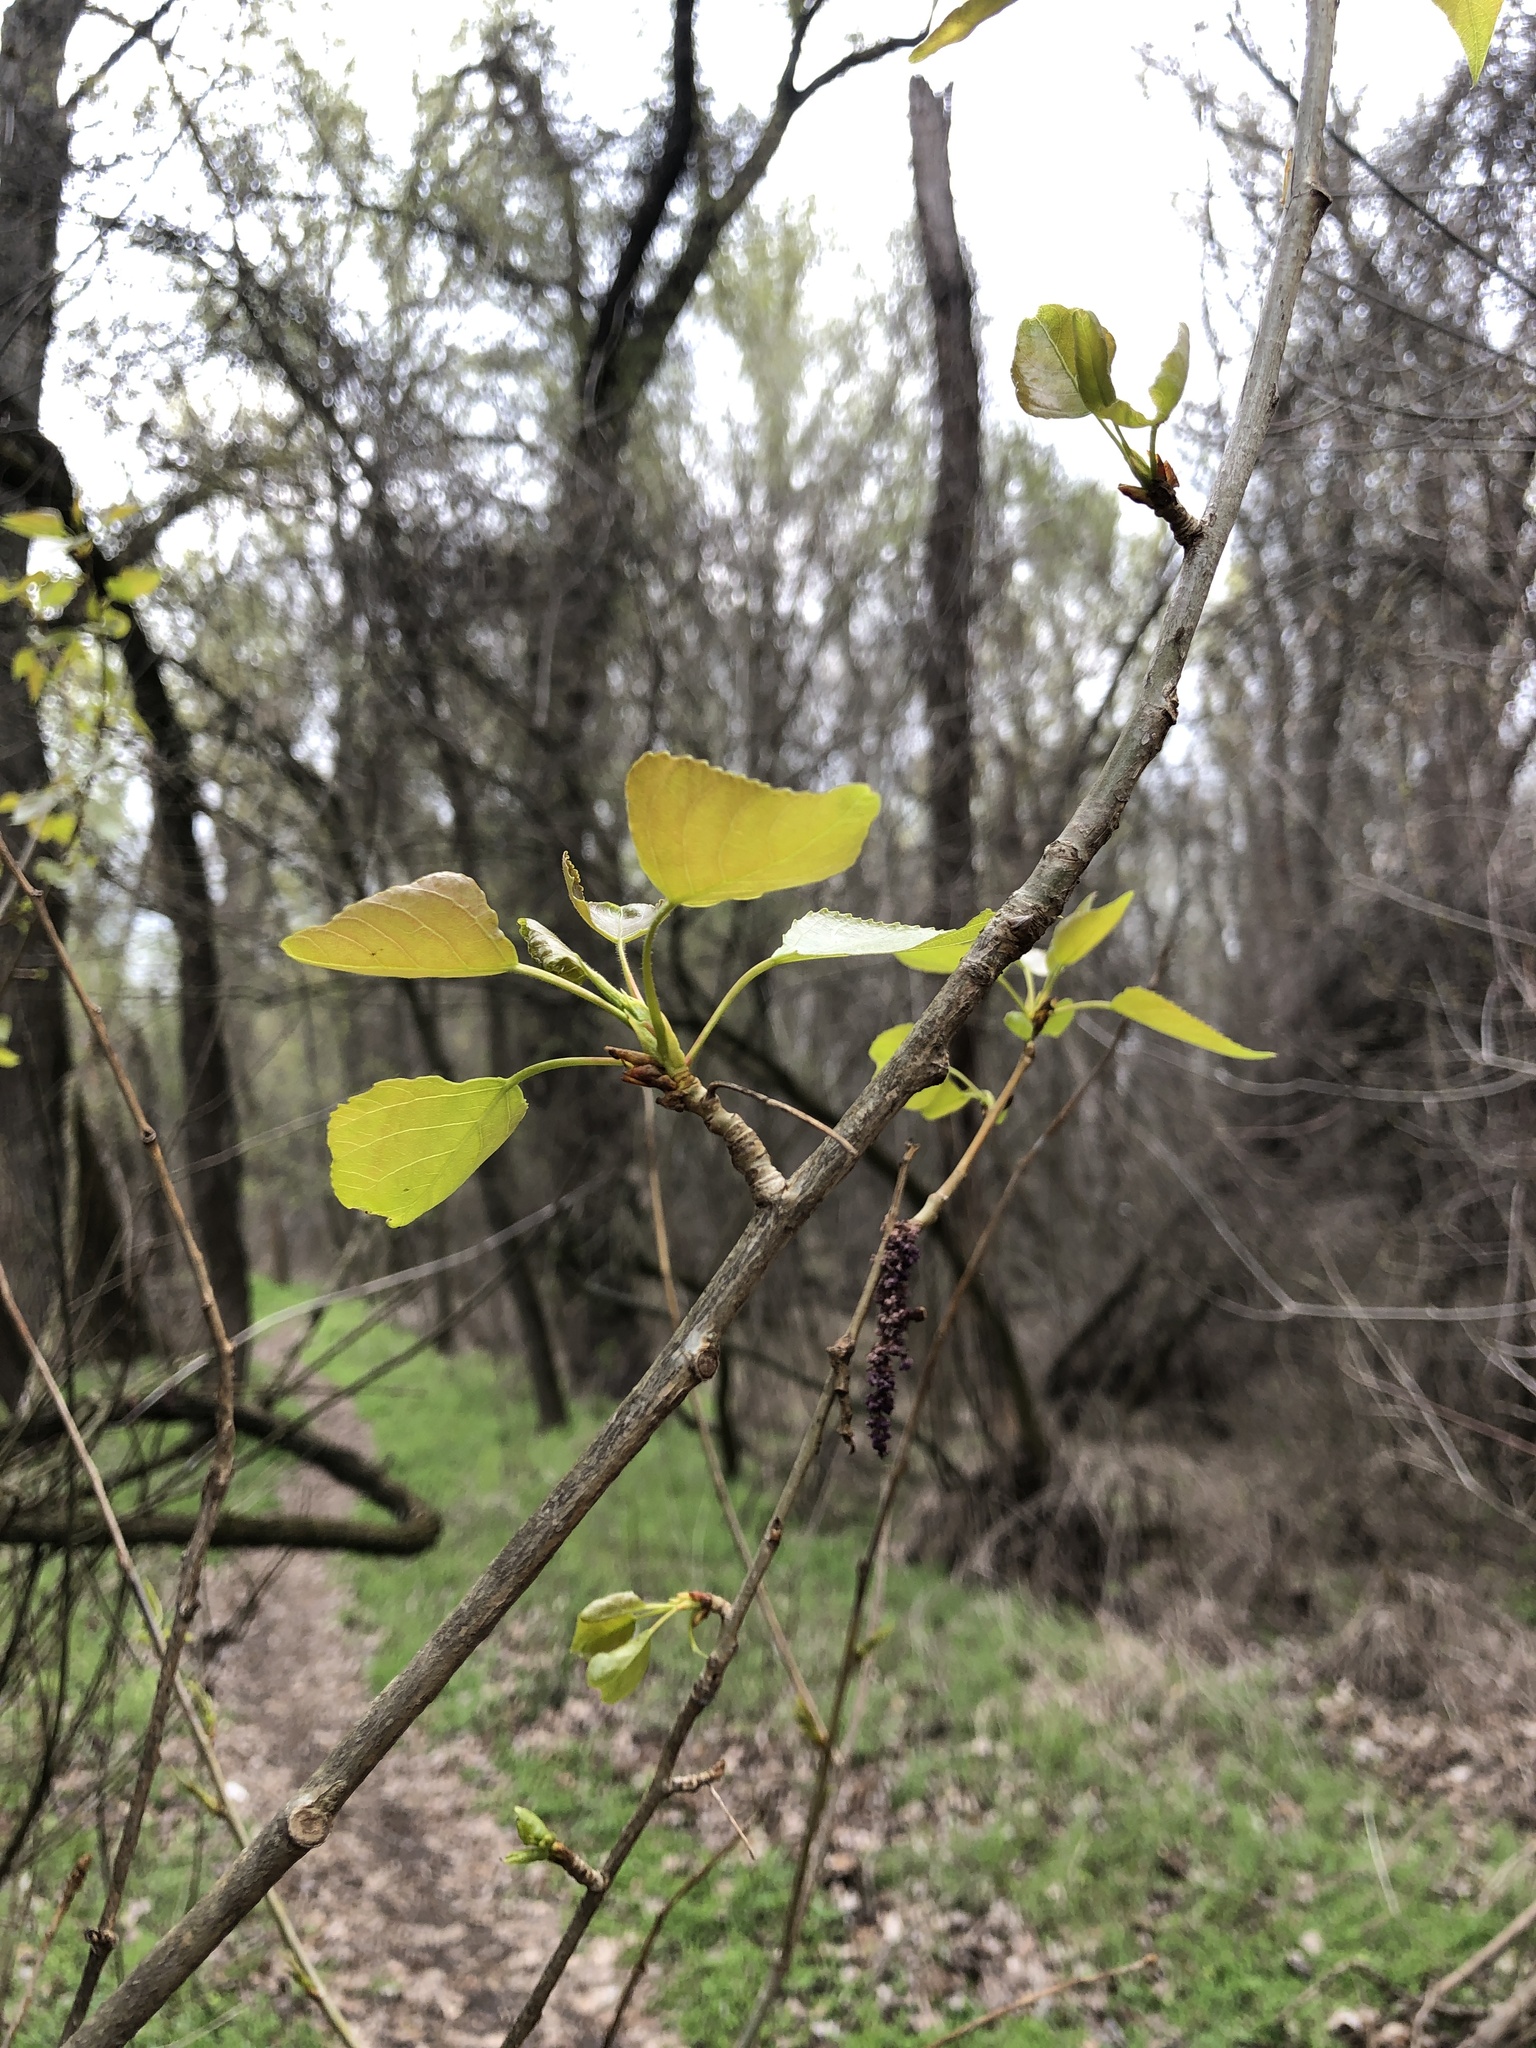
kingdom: Plantae
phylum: Tracheophyta
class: Magnoliopsida
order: Malpighiales
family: Salicaceae
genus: Populus
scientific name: Populus nigra
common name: Black poplar
